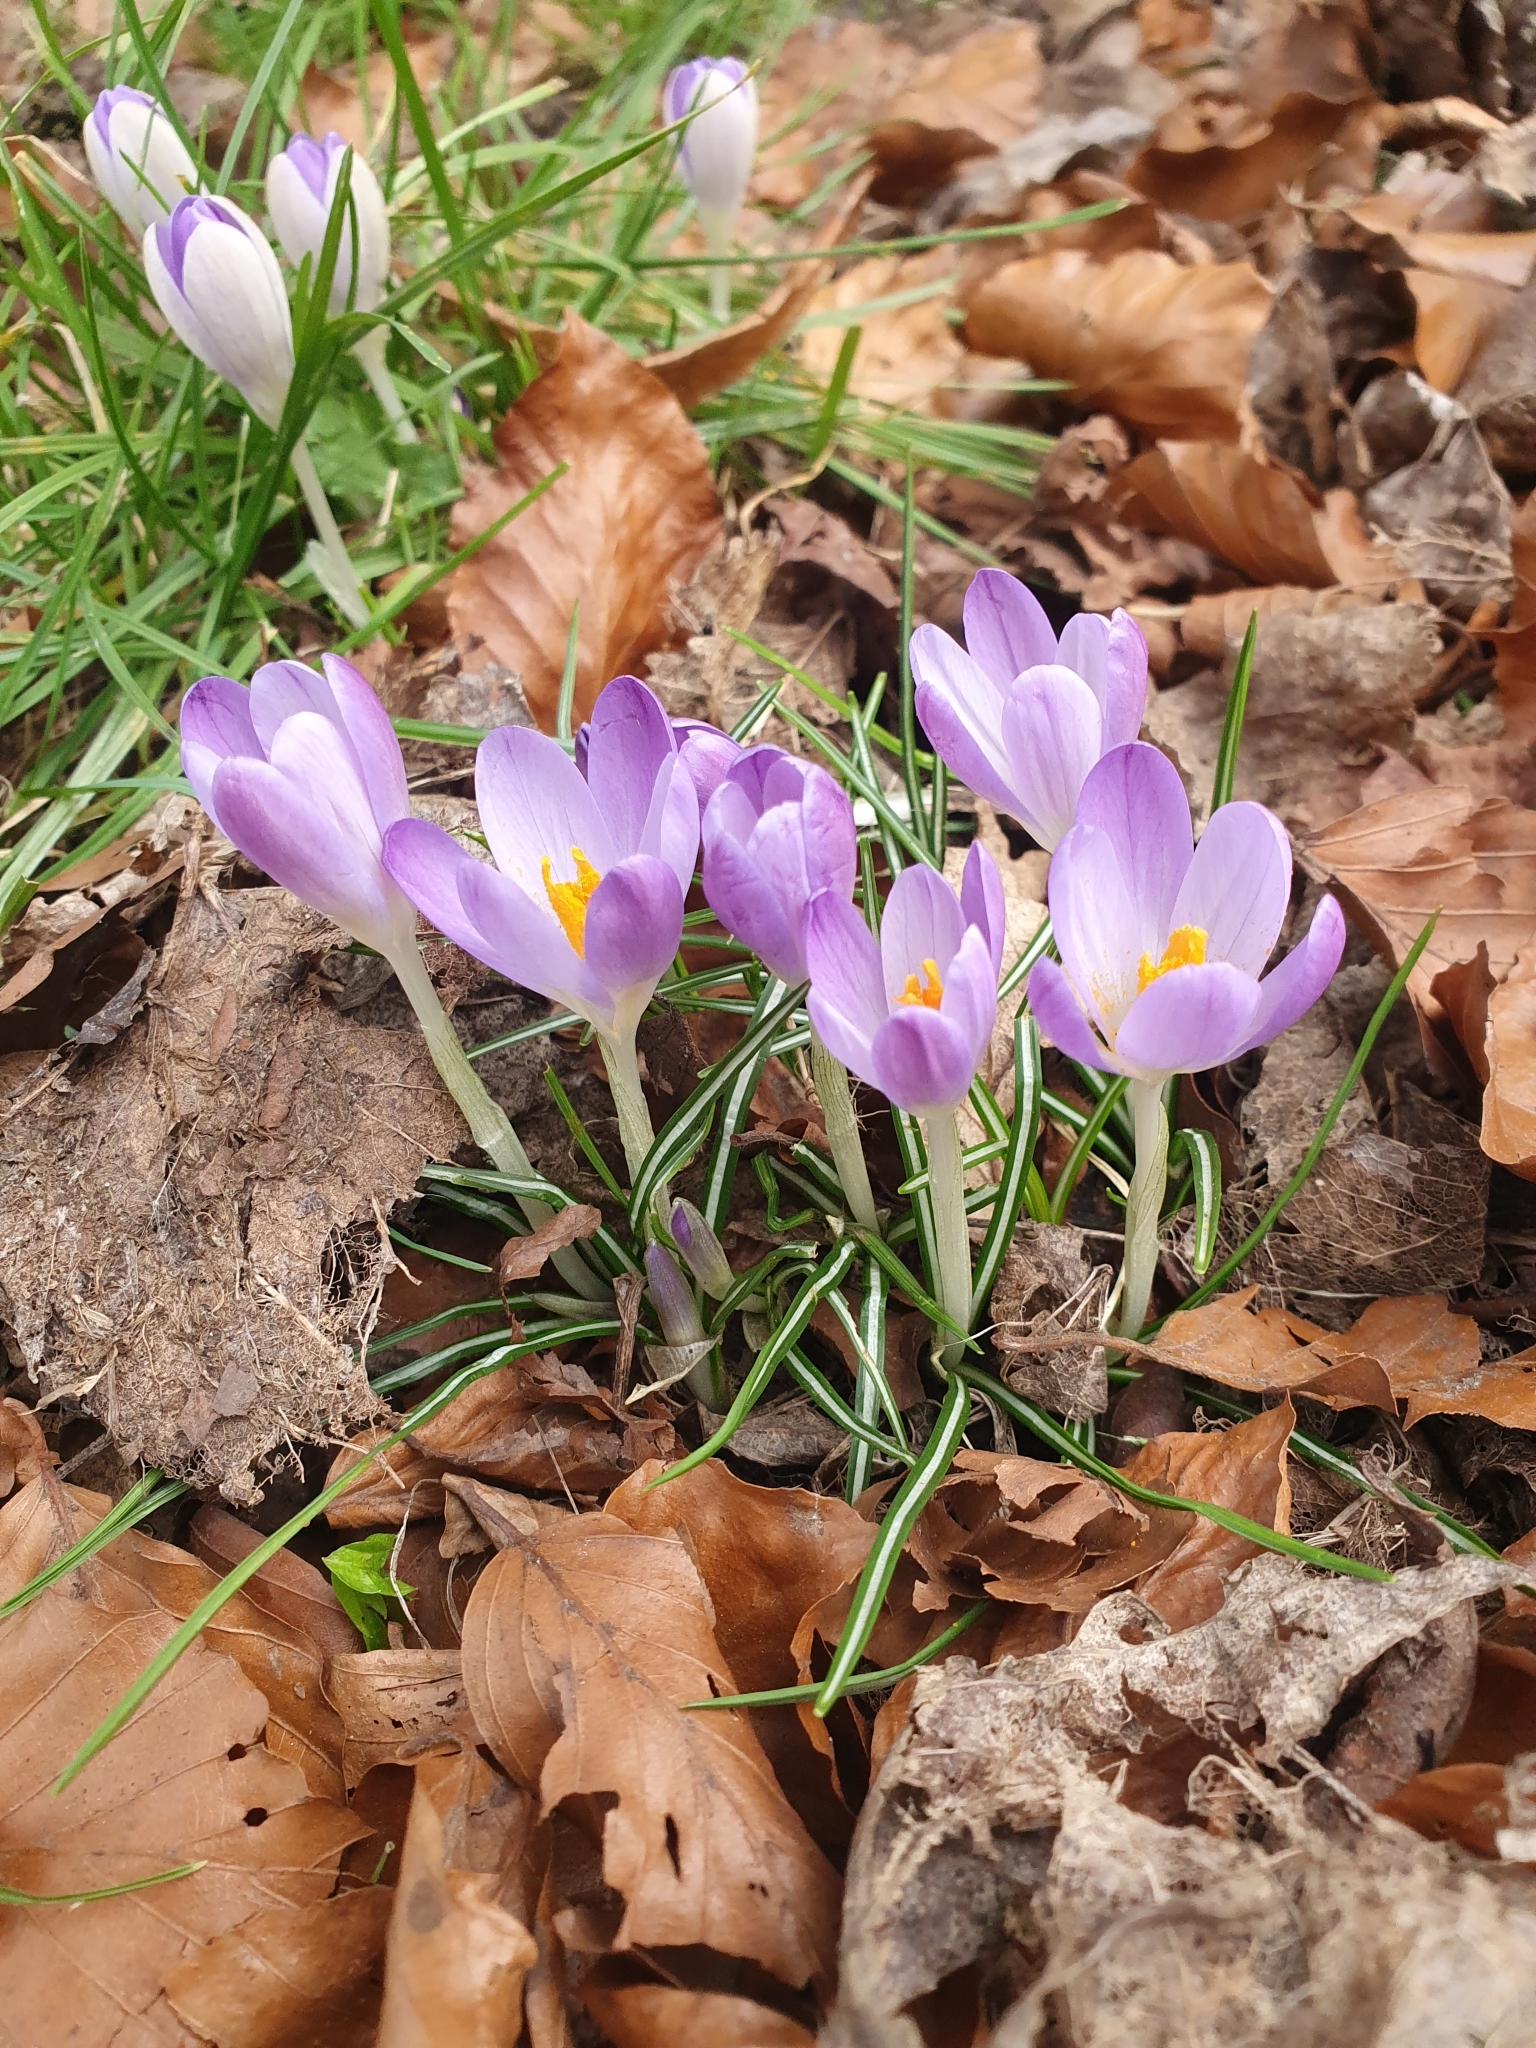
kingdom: Plantae
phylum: Tracheophyta
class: Liliopsida
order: Asparagales
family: Iridaceae
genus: Crocus
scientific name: Crocus tommasinianus
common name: Early crocus
